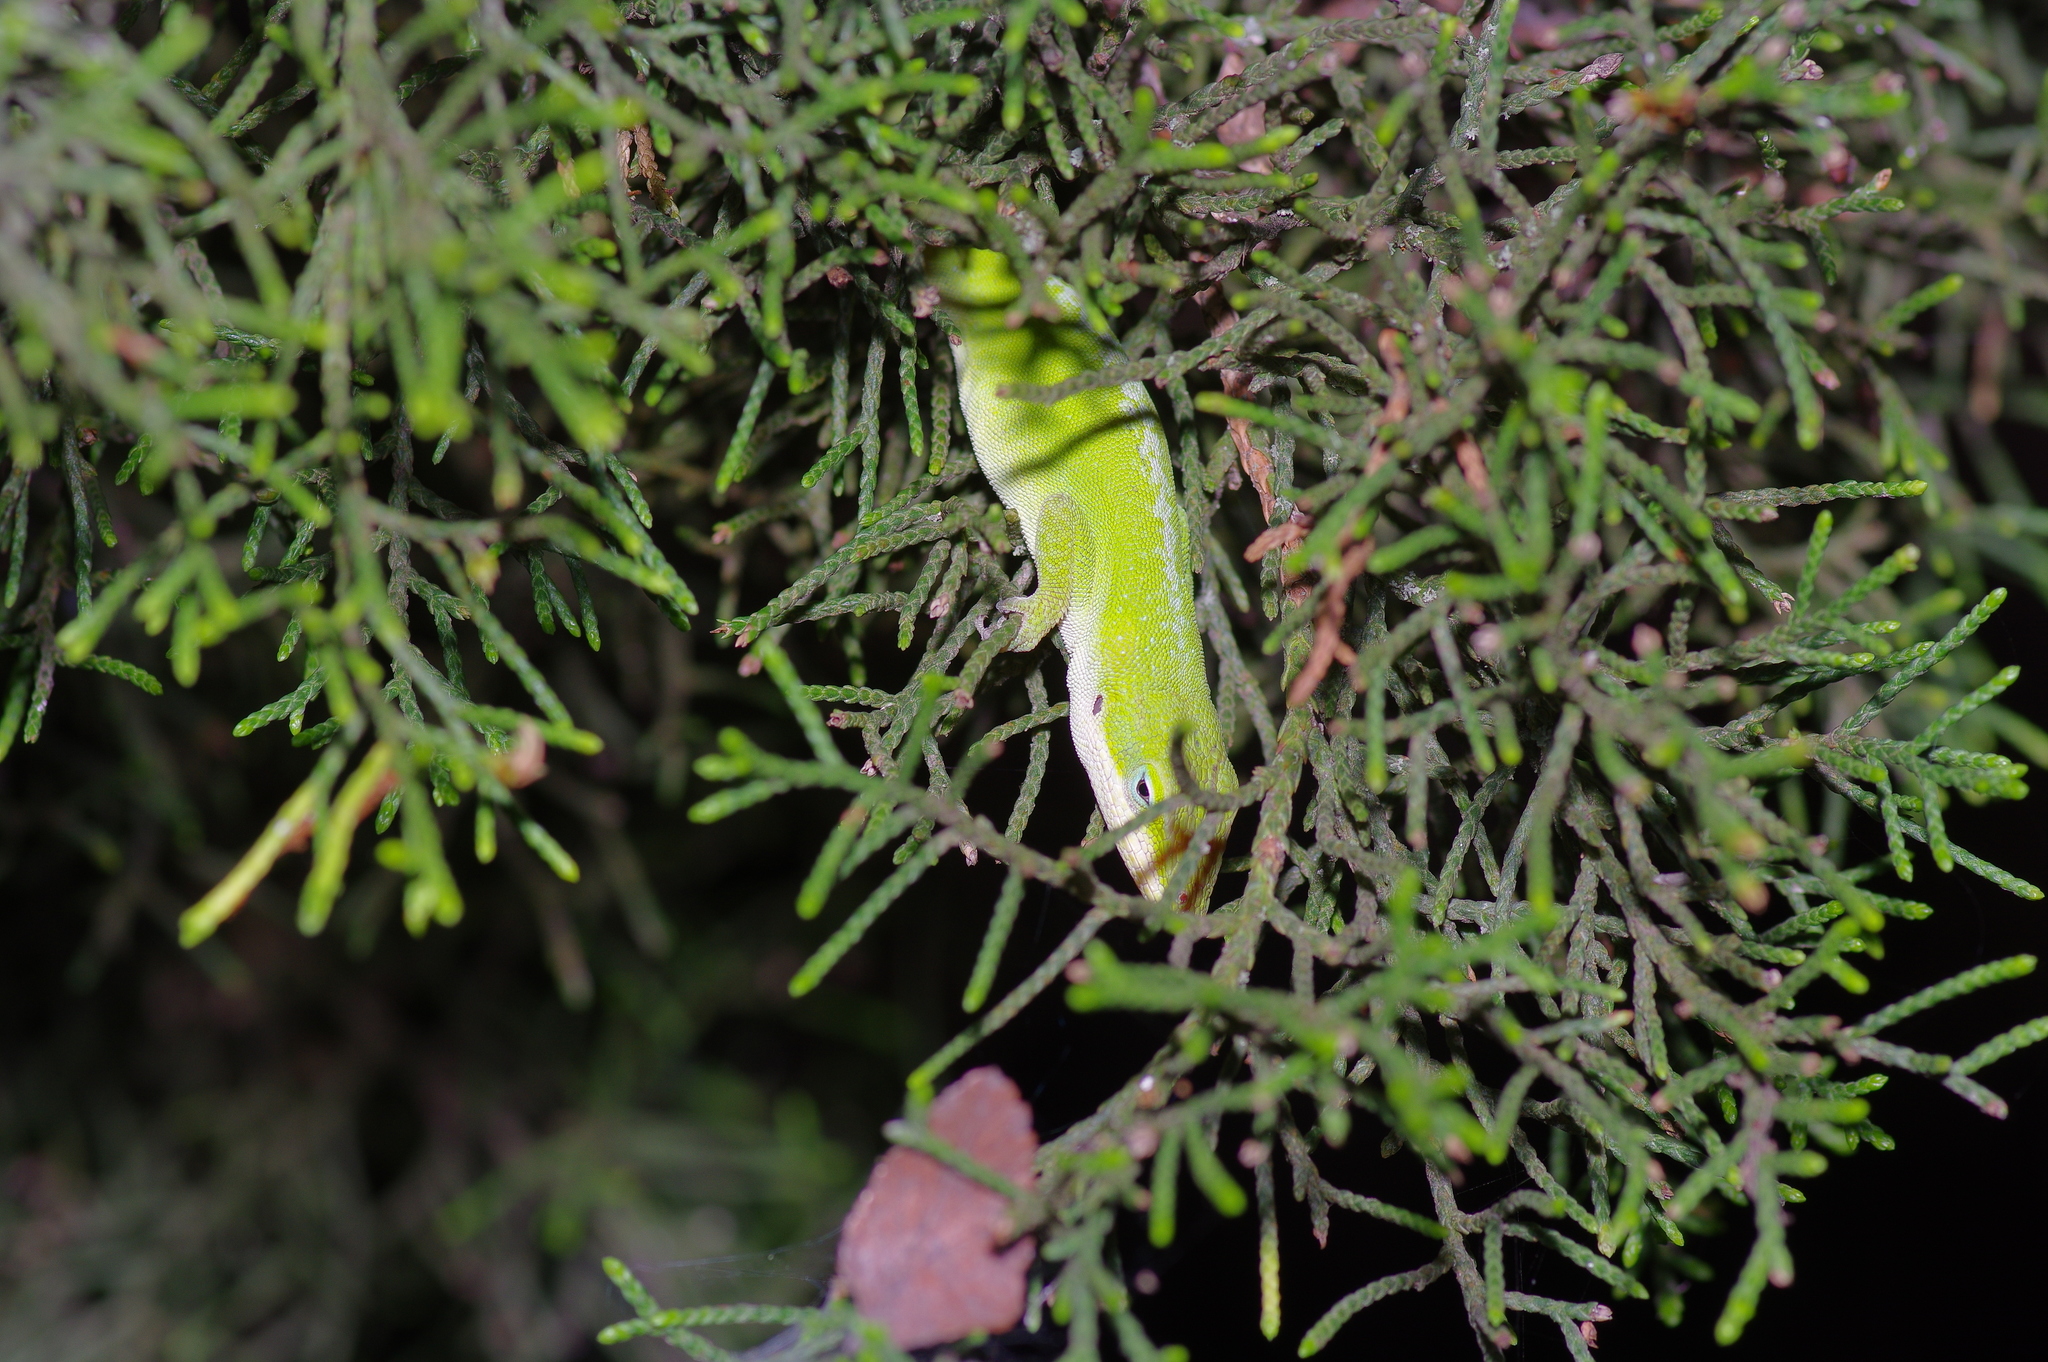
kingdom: Animalia
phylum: Chordata
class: Squamata
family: Dactyloidae
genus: Anolis
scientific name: Anolis carolinensis
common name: Green anole
